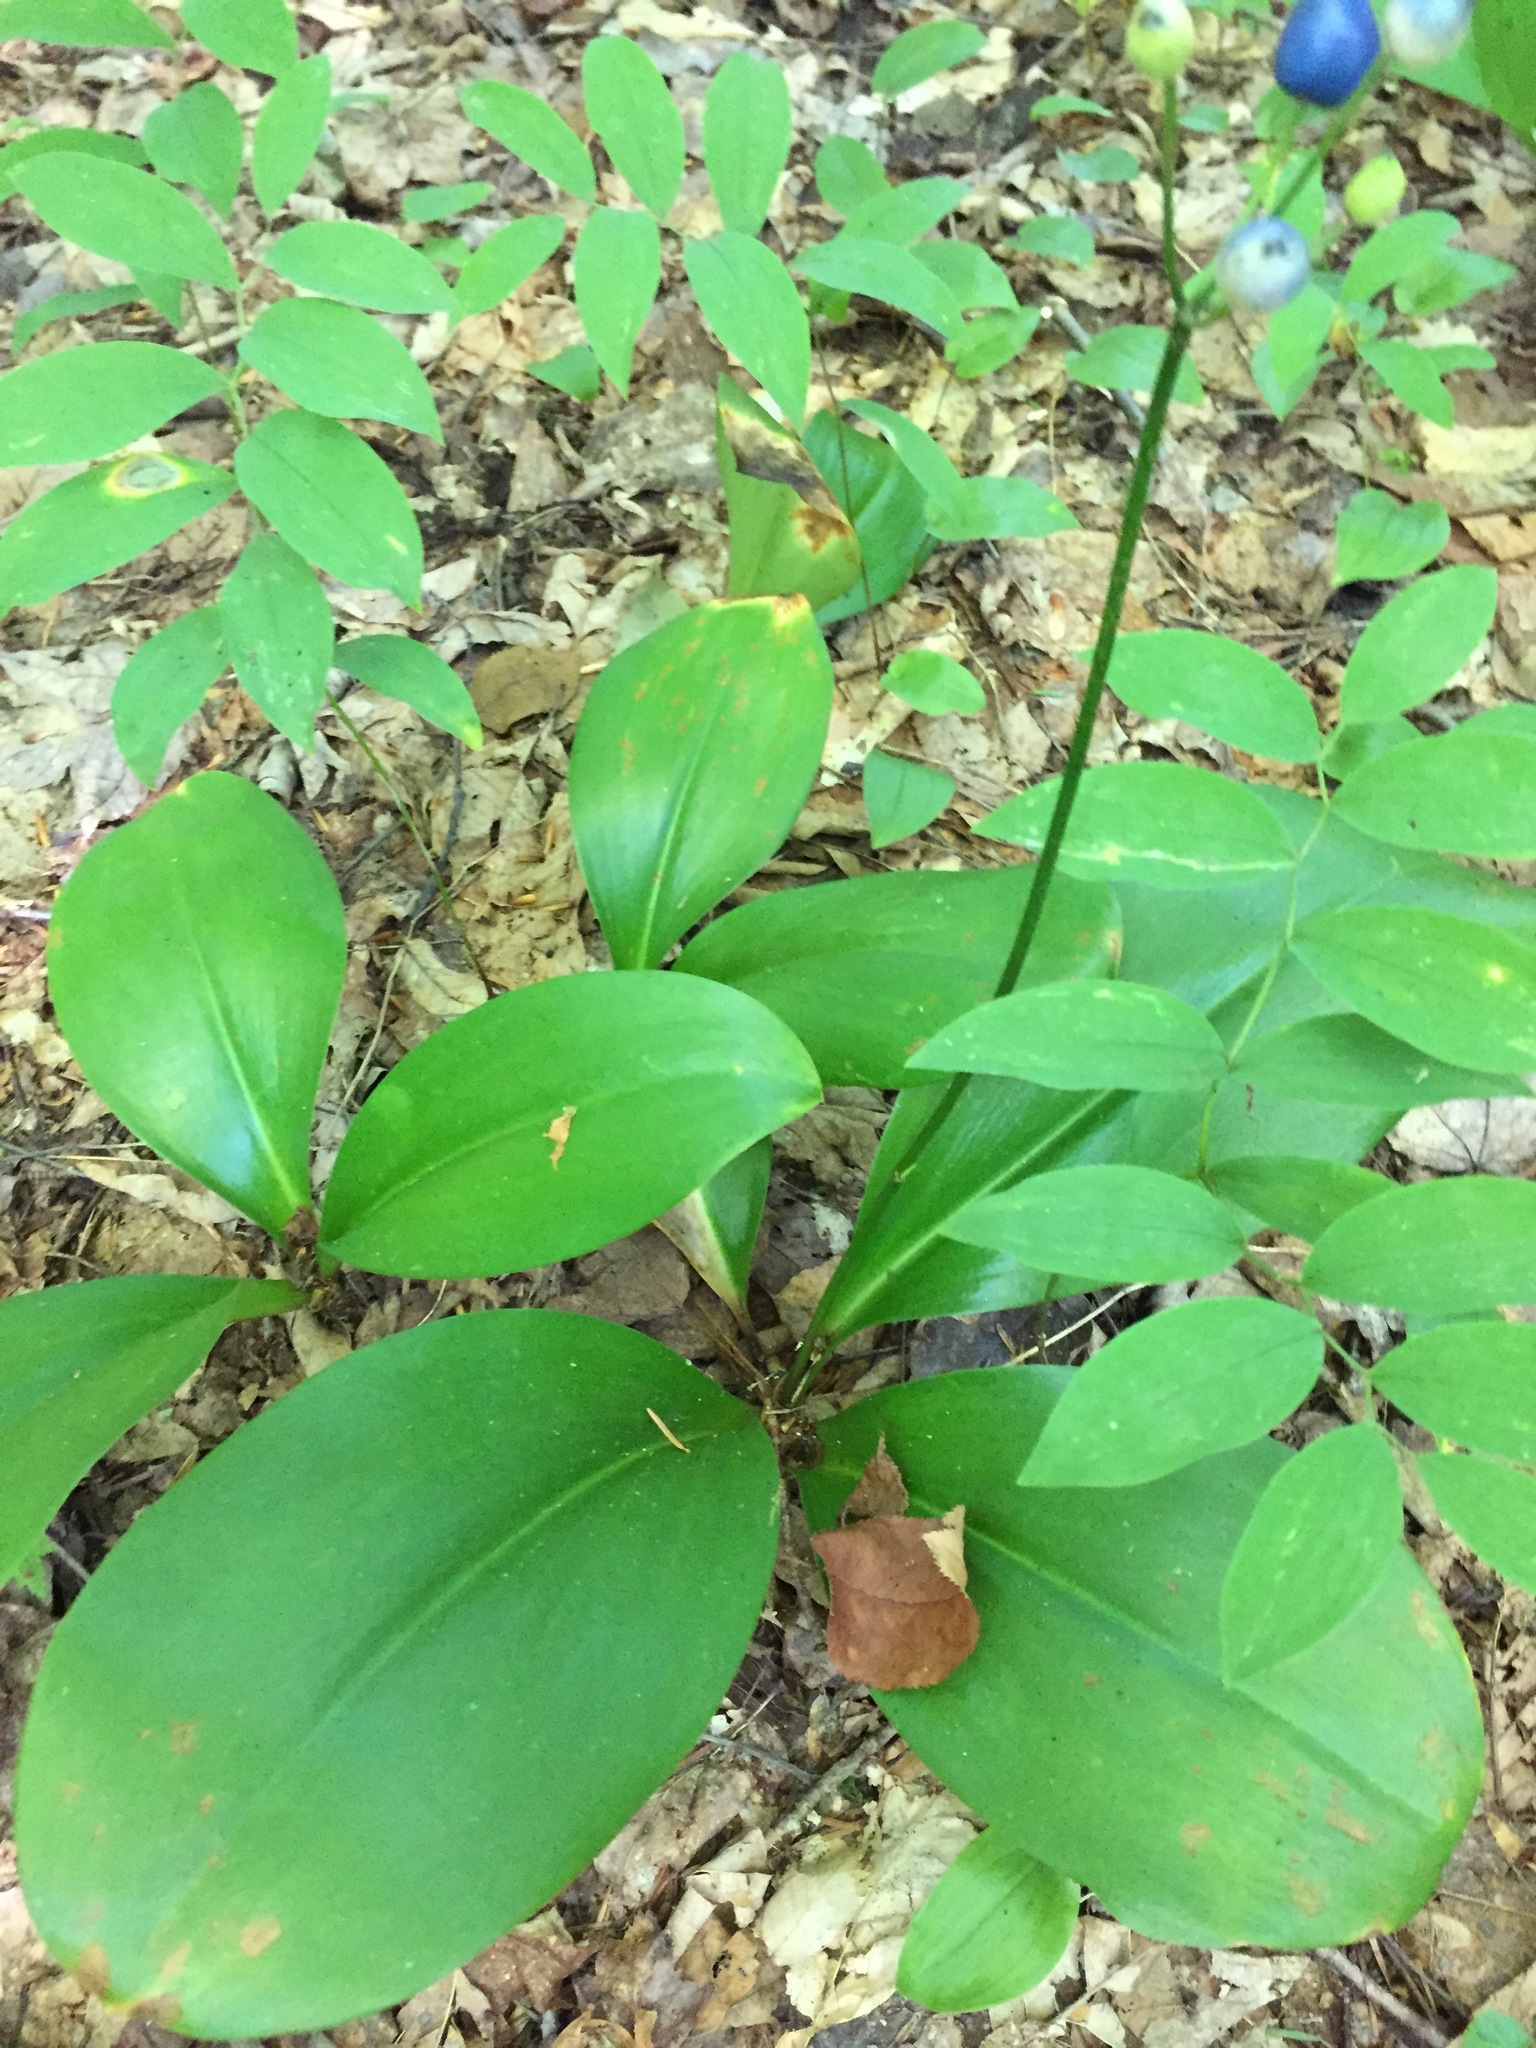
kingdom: Plantae
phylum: Tracheophyta
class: Liliopsida
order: Liliales
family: Liliaceae
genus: Clintonia
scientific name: Clintonia borealis
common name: Yellow clintonia
